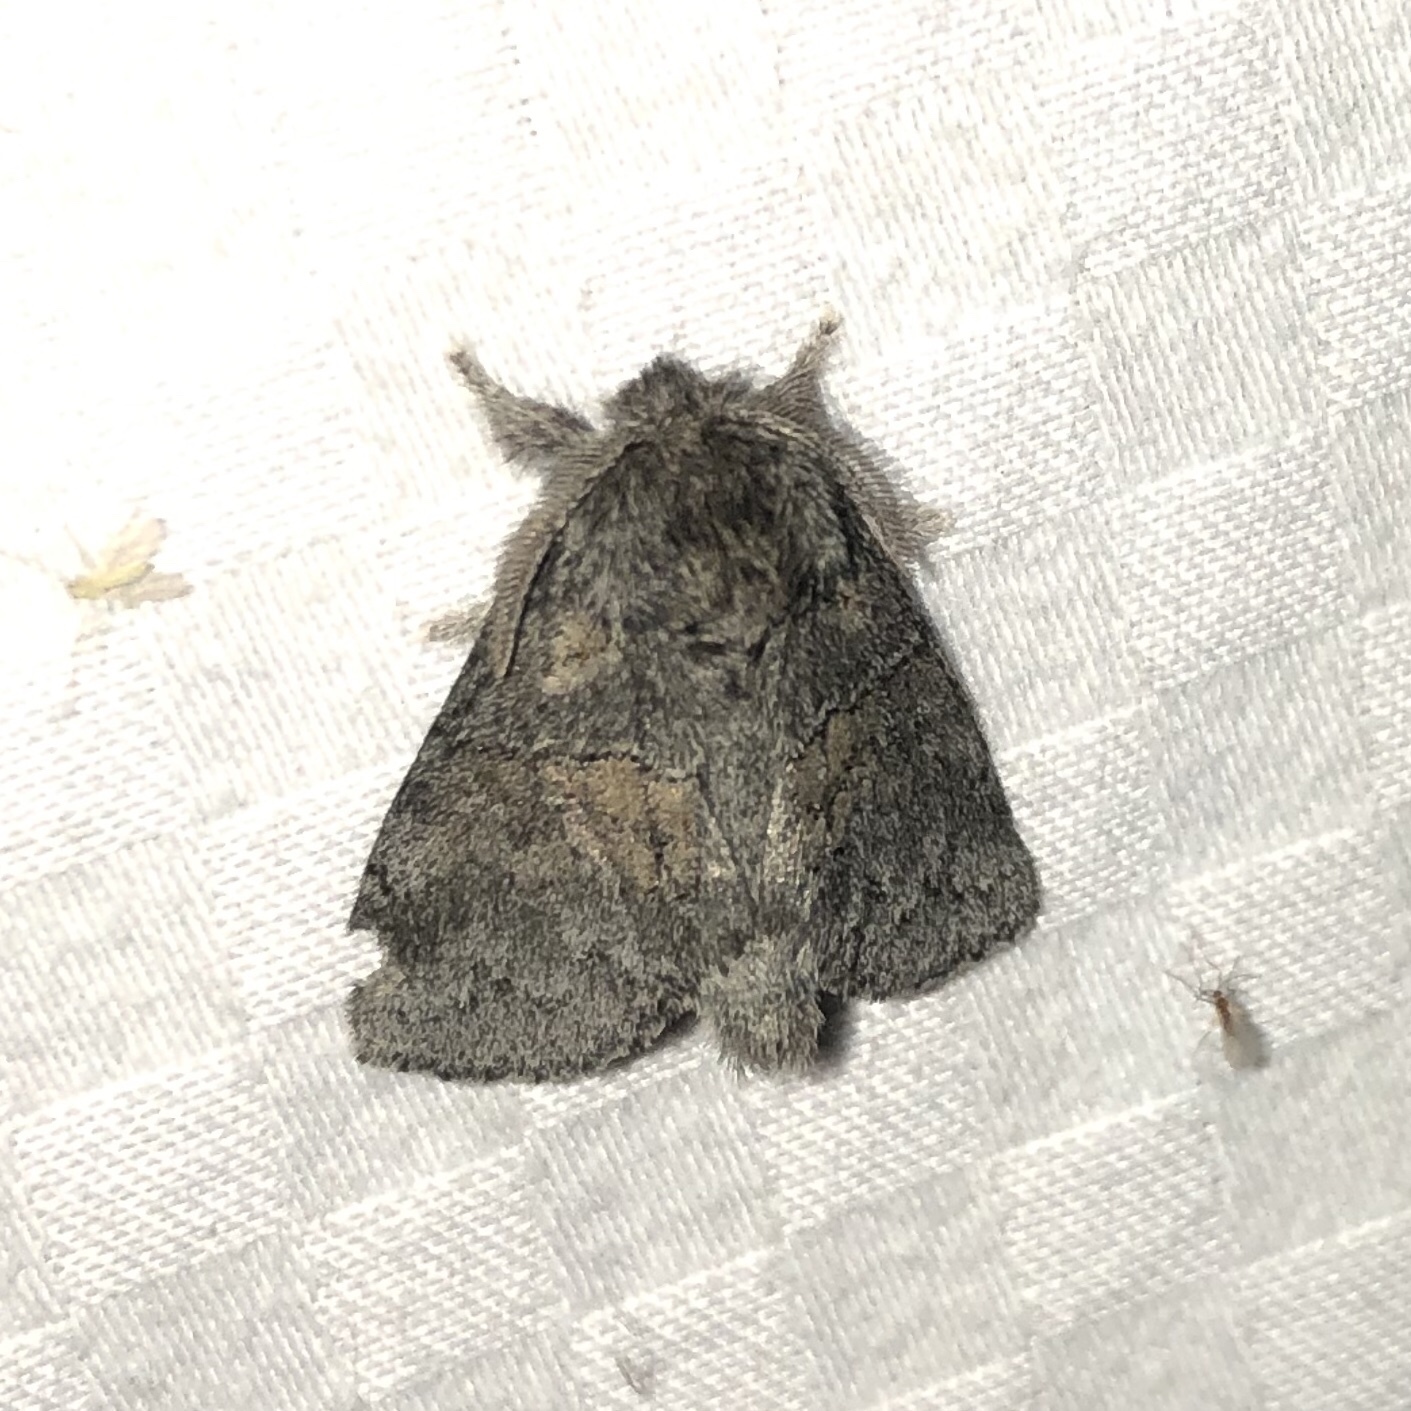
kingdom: Animalia
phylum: Arthropoda
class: Insecta
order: Lepidoptera
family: Notodontidae
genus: Gluphisia
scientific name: Gluphisia septentrionis
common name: Common gluphisia
